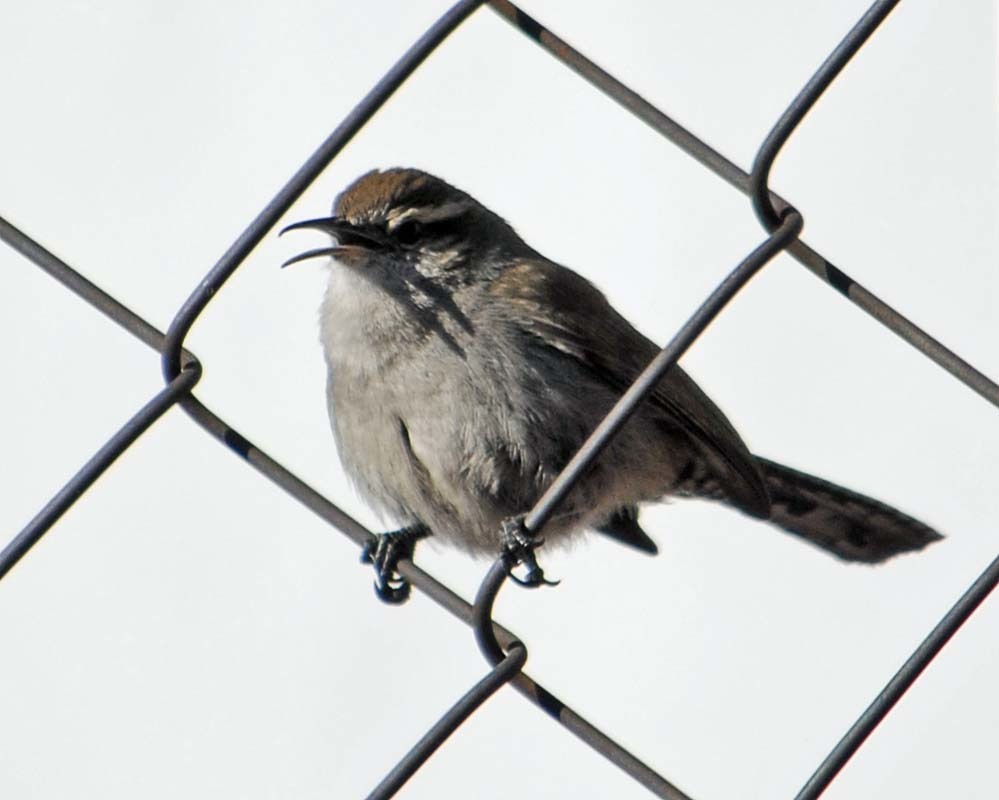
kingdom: Animalia
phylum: Chordata
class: Aves
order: Passeriformes
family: Troglodytidae
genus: Thryomanes
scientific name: Thryomanes bewickii
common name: Bewick's wren
